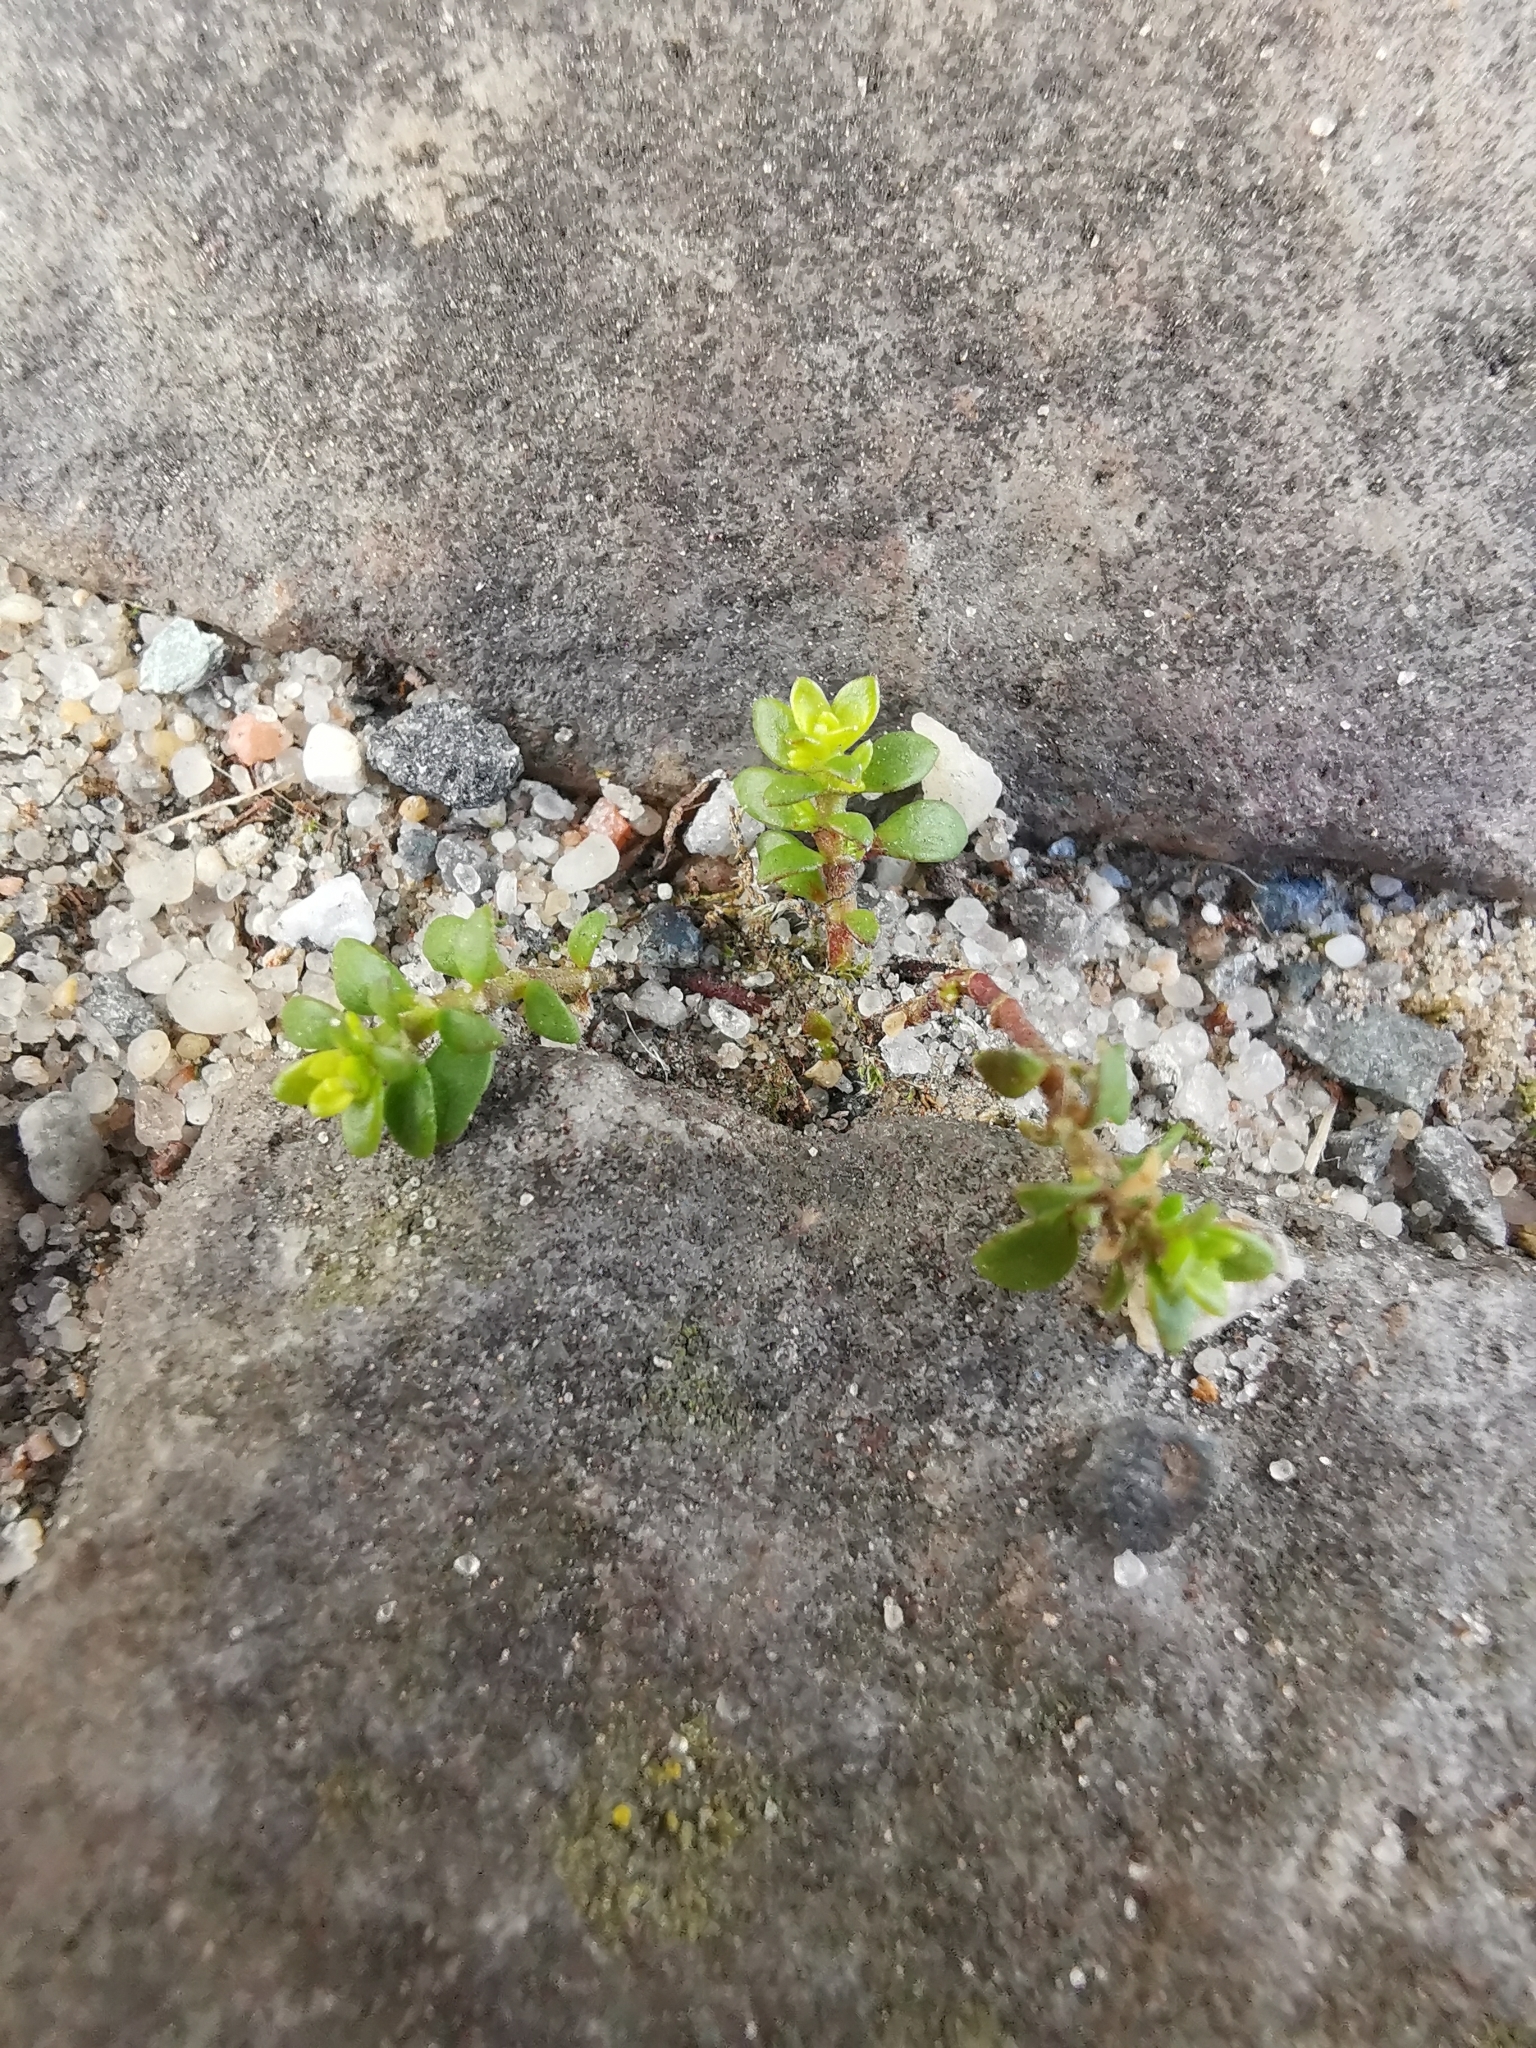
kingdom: Plantae
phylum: Tracheophyta
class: Magnoliopsida
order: Caryophyllales
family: Caryophyllaceae
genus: Herniaria
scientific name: Herniaria glabra
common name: Smooth rupturewort
